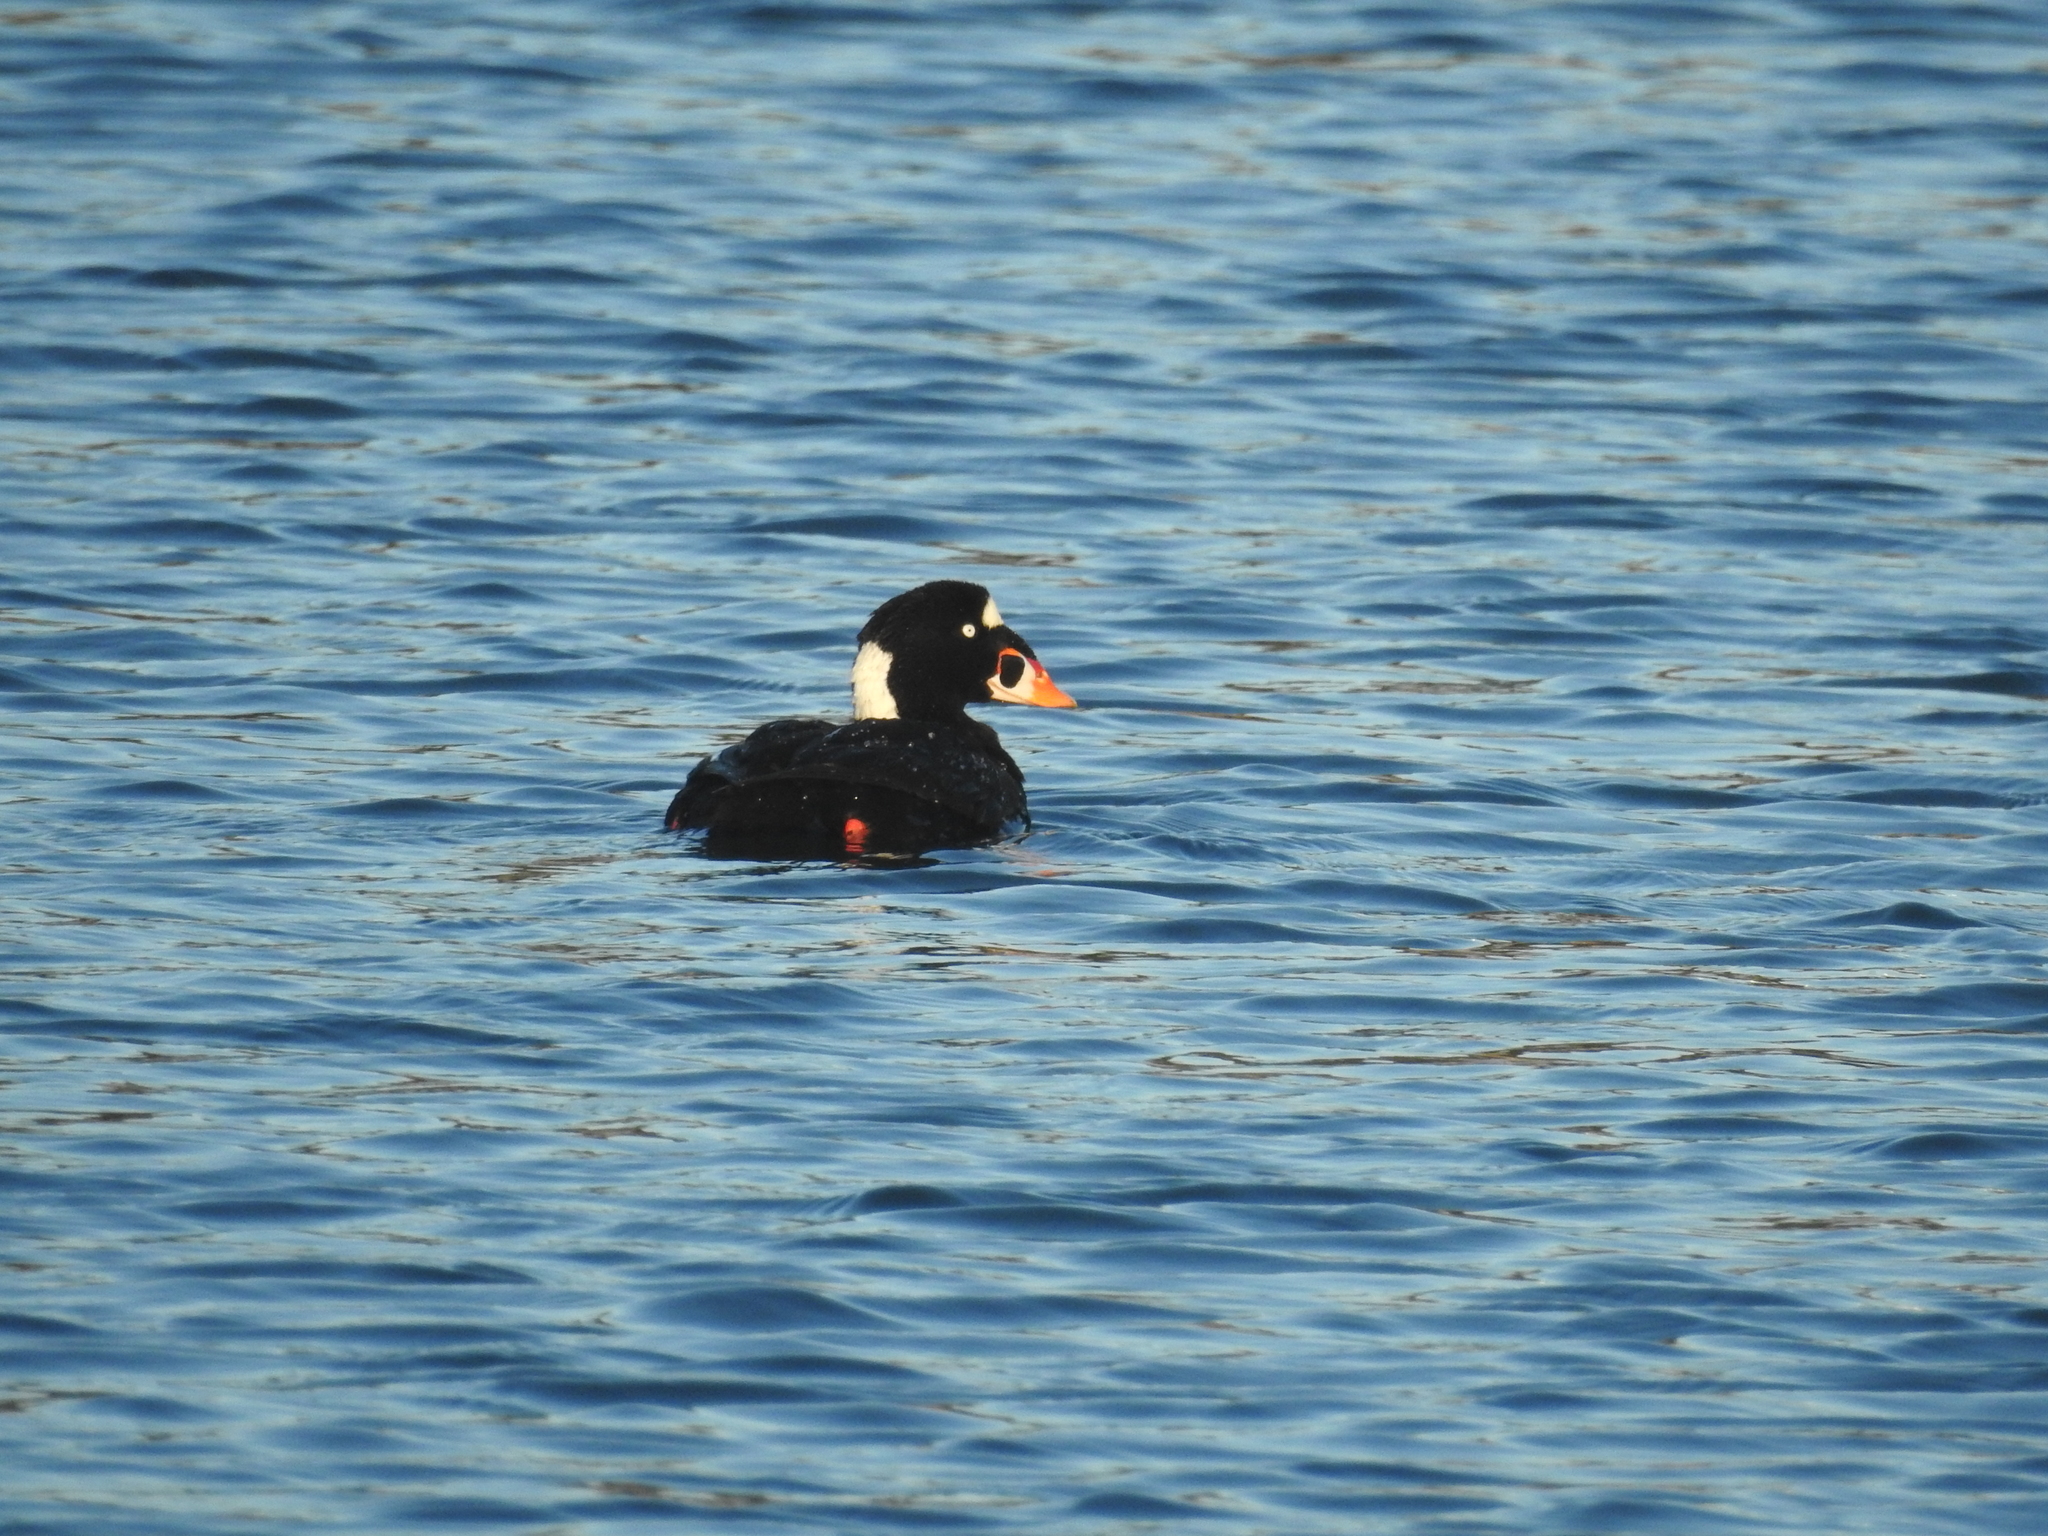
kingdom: Animalia
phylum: Chordata
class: Aves
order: Anseriformes
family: Anatidae
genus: Melanitta
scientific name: Melanitta perspicillata
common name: Surf scoter
